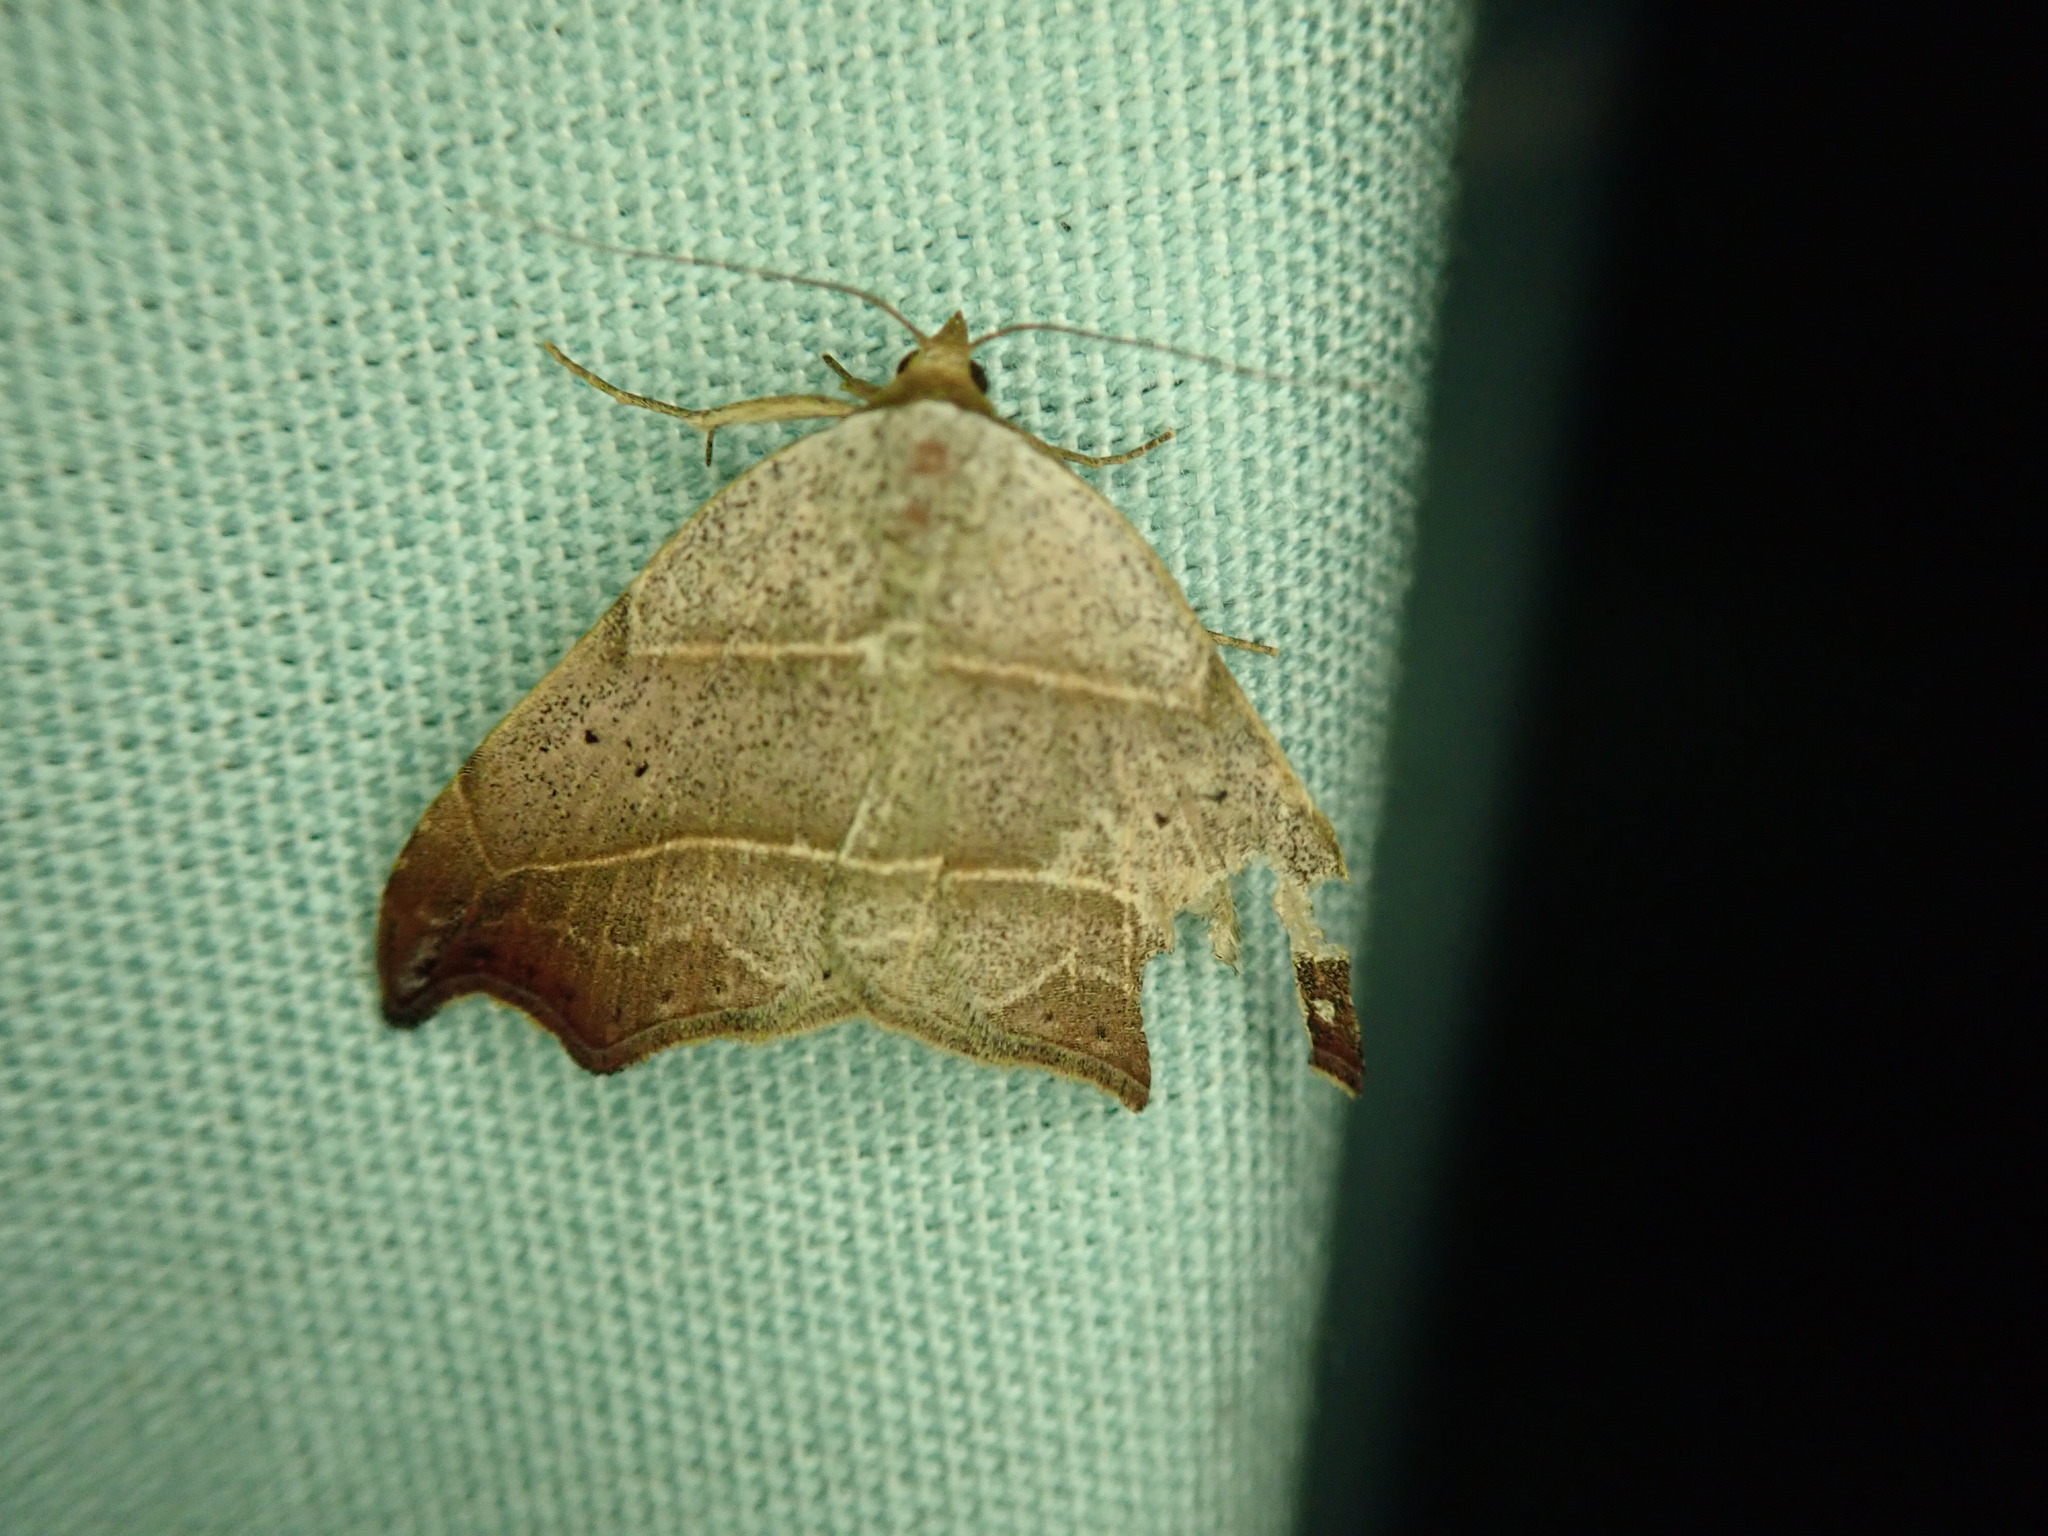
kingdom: Animalia
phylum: Arthropoda
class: Insecta
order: Lepidoptera
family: Erebidae
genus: Laspeyria
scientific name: Laspeyria flexula
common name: Beautiful hook-tip
